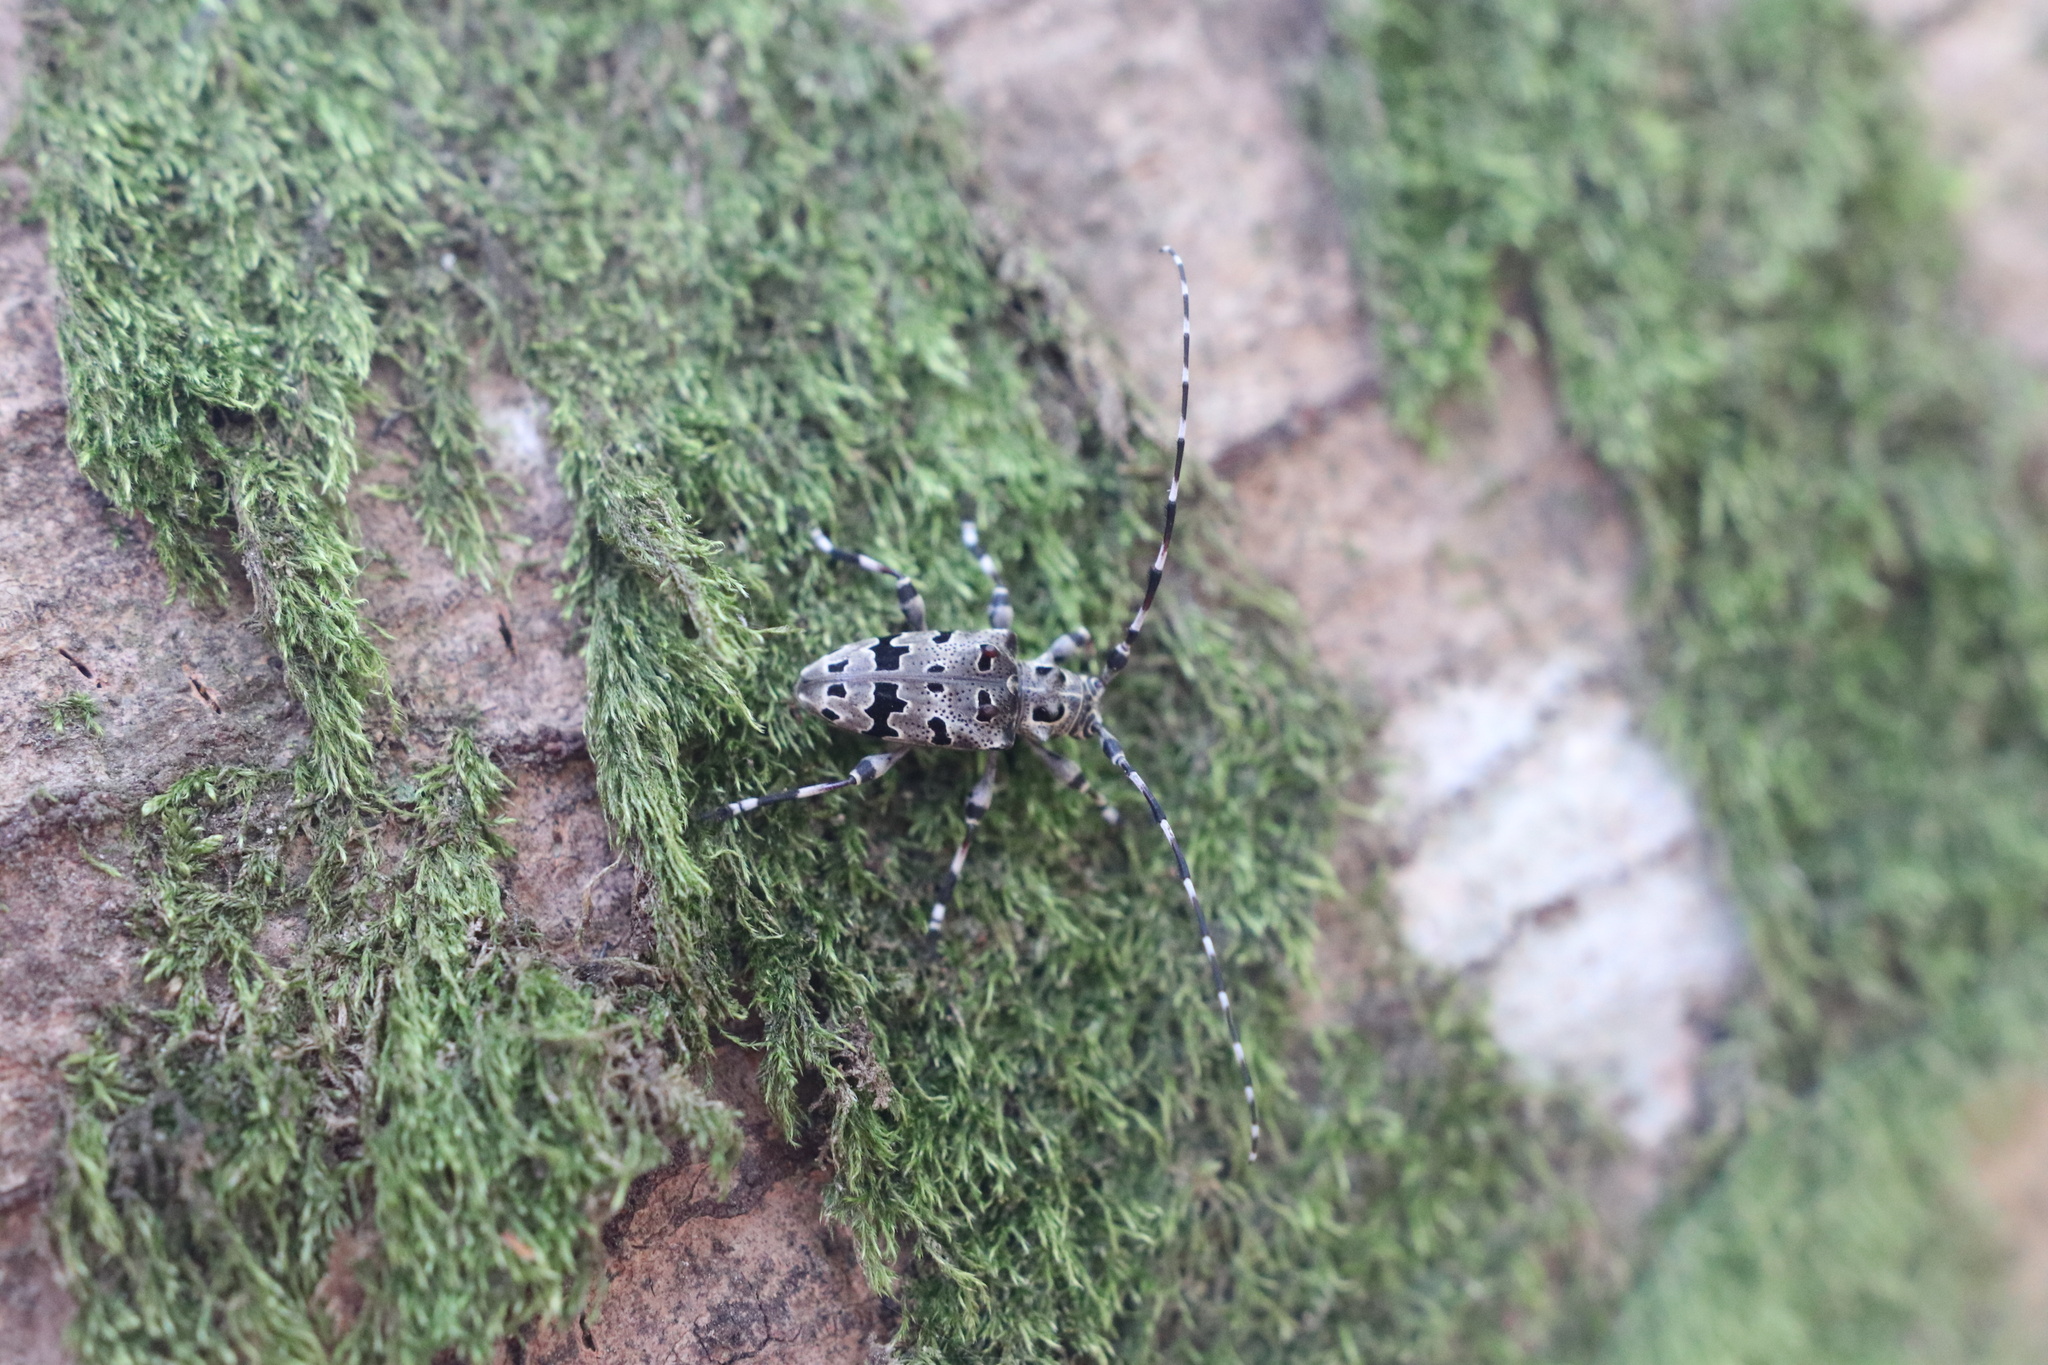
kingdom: Animalia
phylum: Arthropoda
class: Insecta
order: Coleoptera
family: Cerambycidae
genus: Azygocera
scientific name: Azygocera picturata
